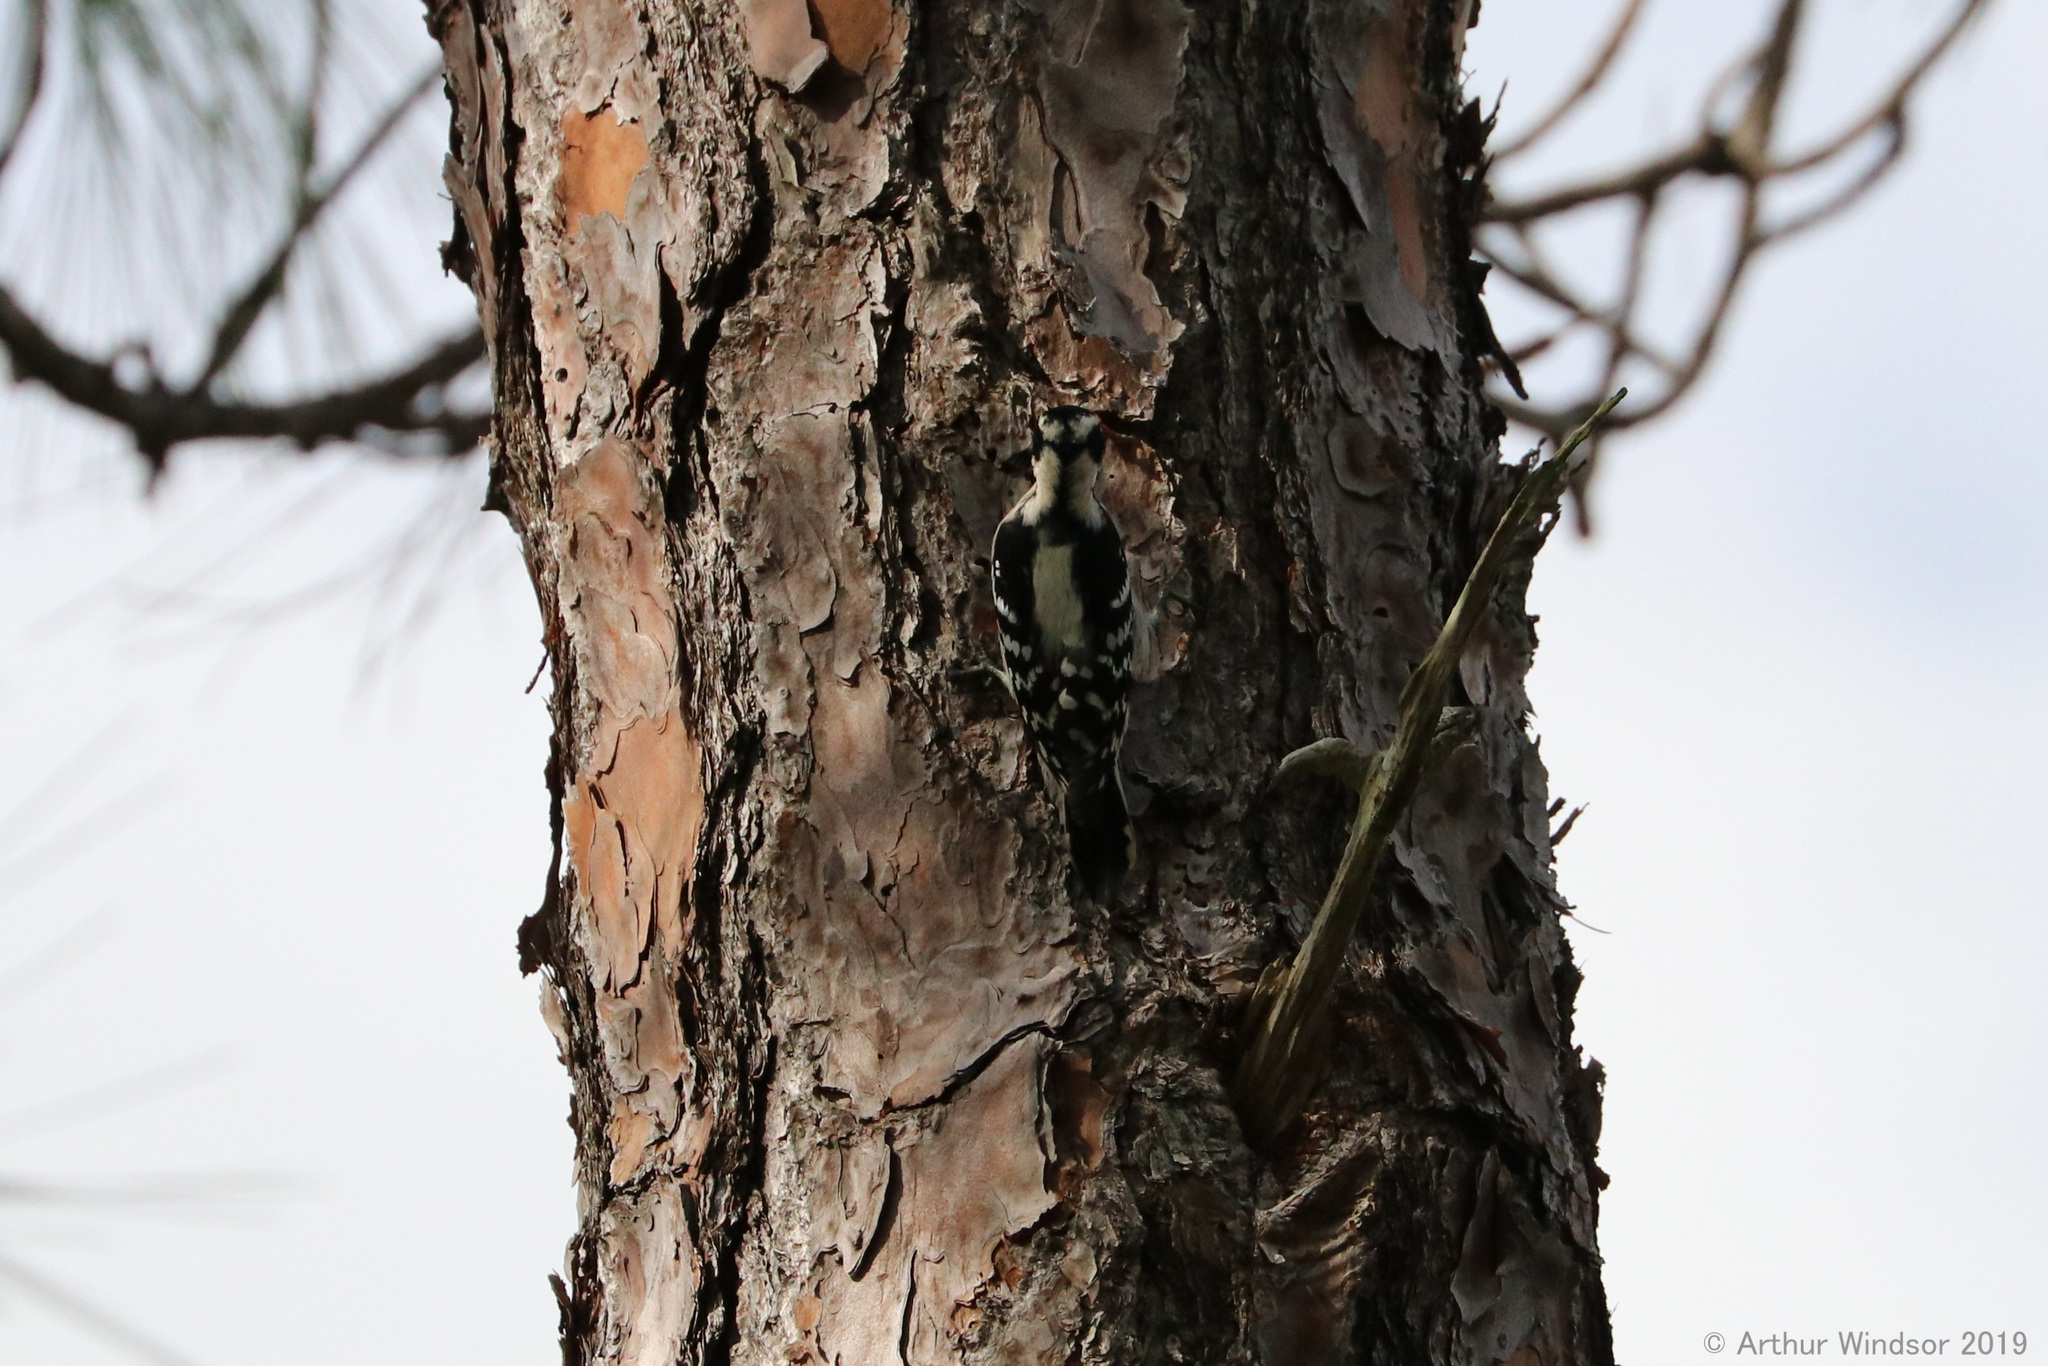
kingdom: Animalia
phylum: Chordata
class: Aves
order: Piciformes
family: Picidae
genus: Dryobates
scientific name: Dryobates pubescens
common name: Downy woodpecker
